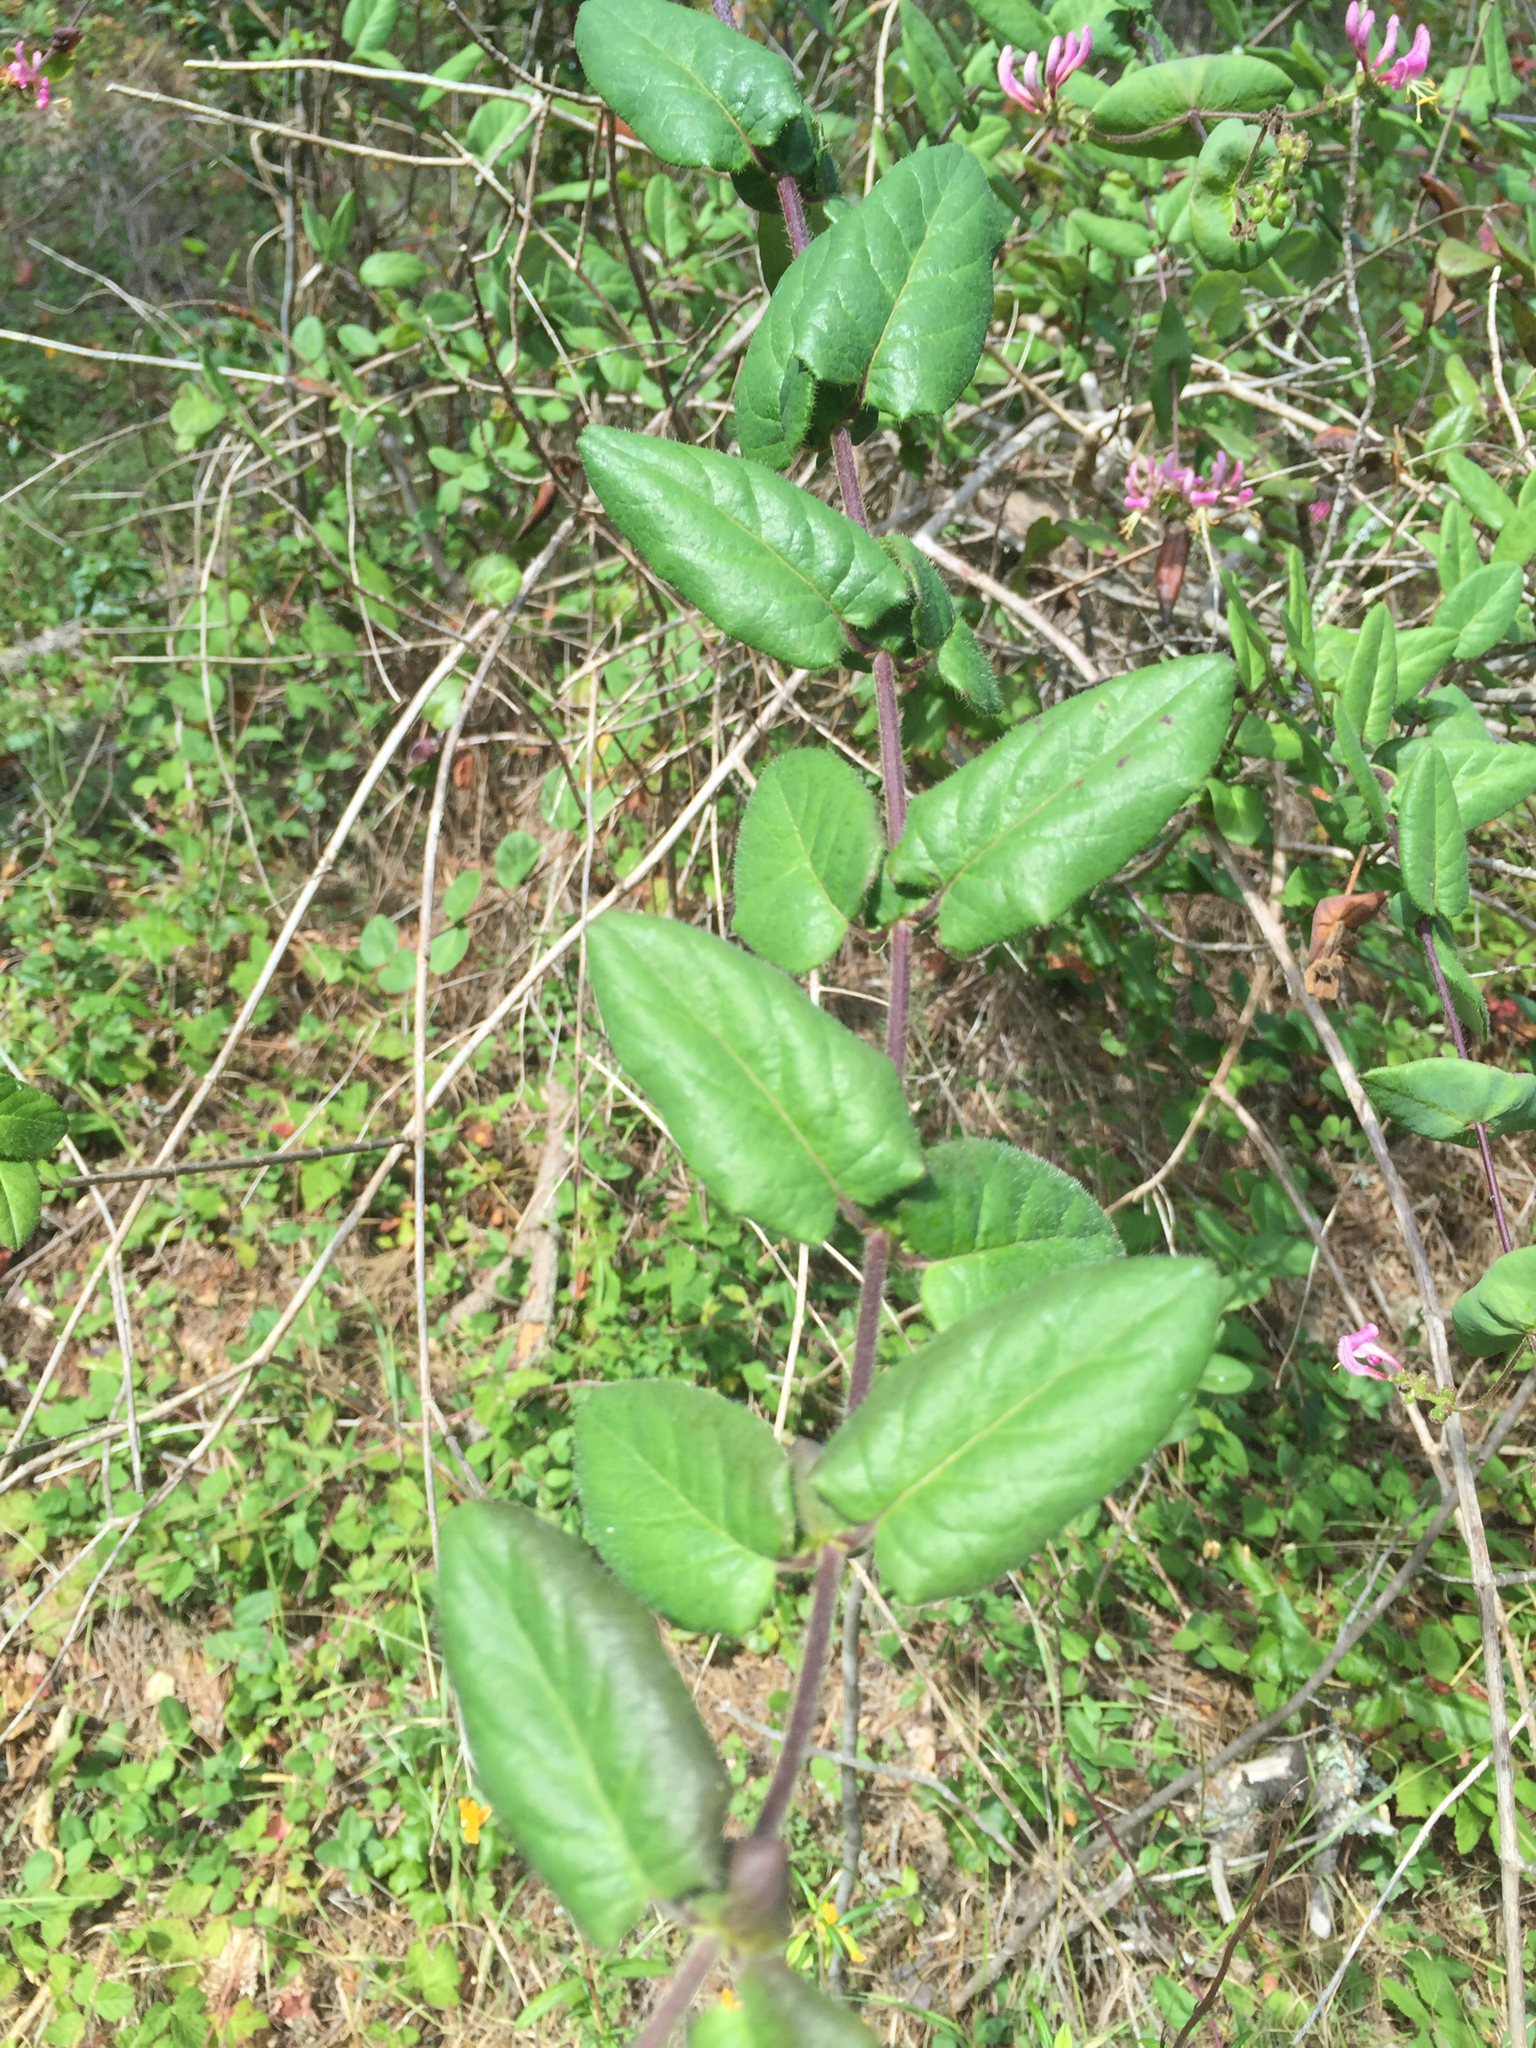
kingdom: Plantae
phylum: Tracheophyta
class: Magnoliopsida
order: Dipsacales
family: Caprifoliaceae
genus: Lonicera
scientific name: Lonicera hispidula
